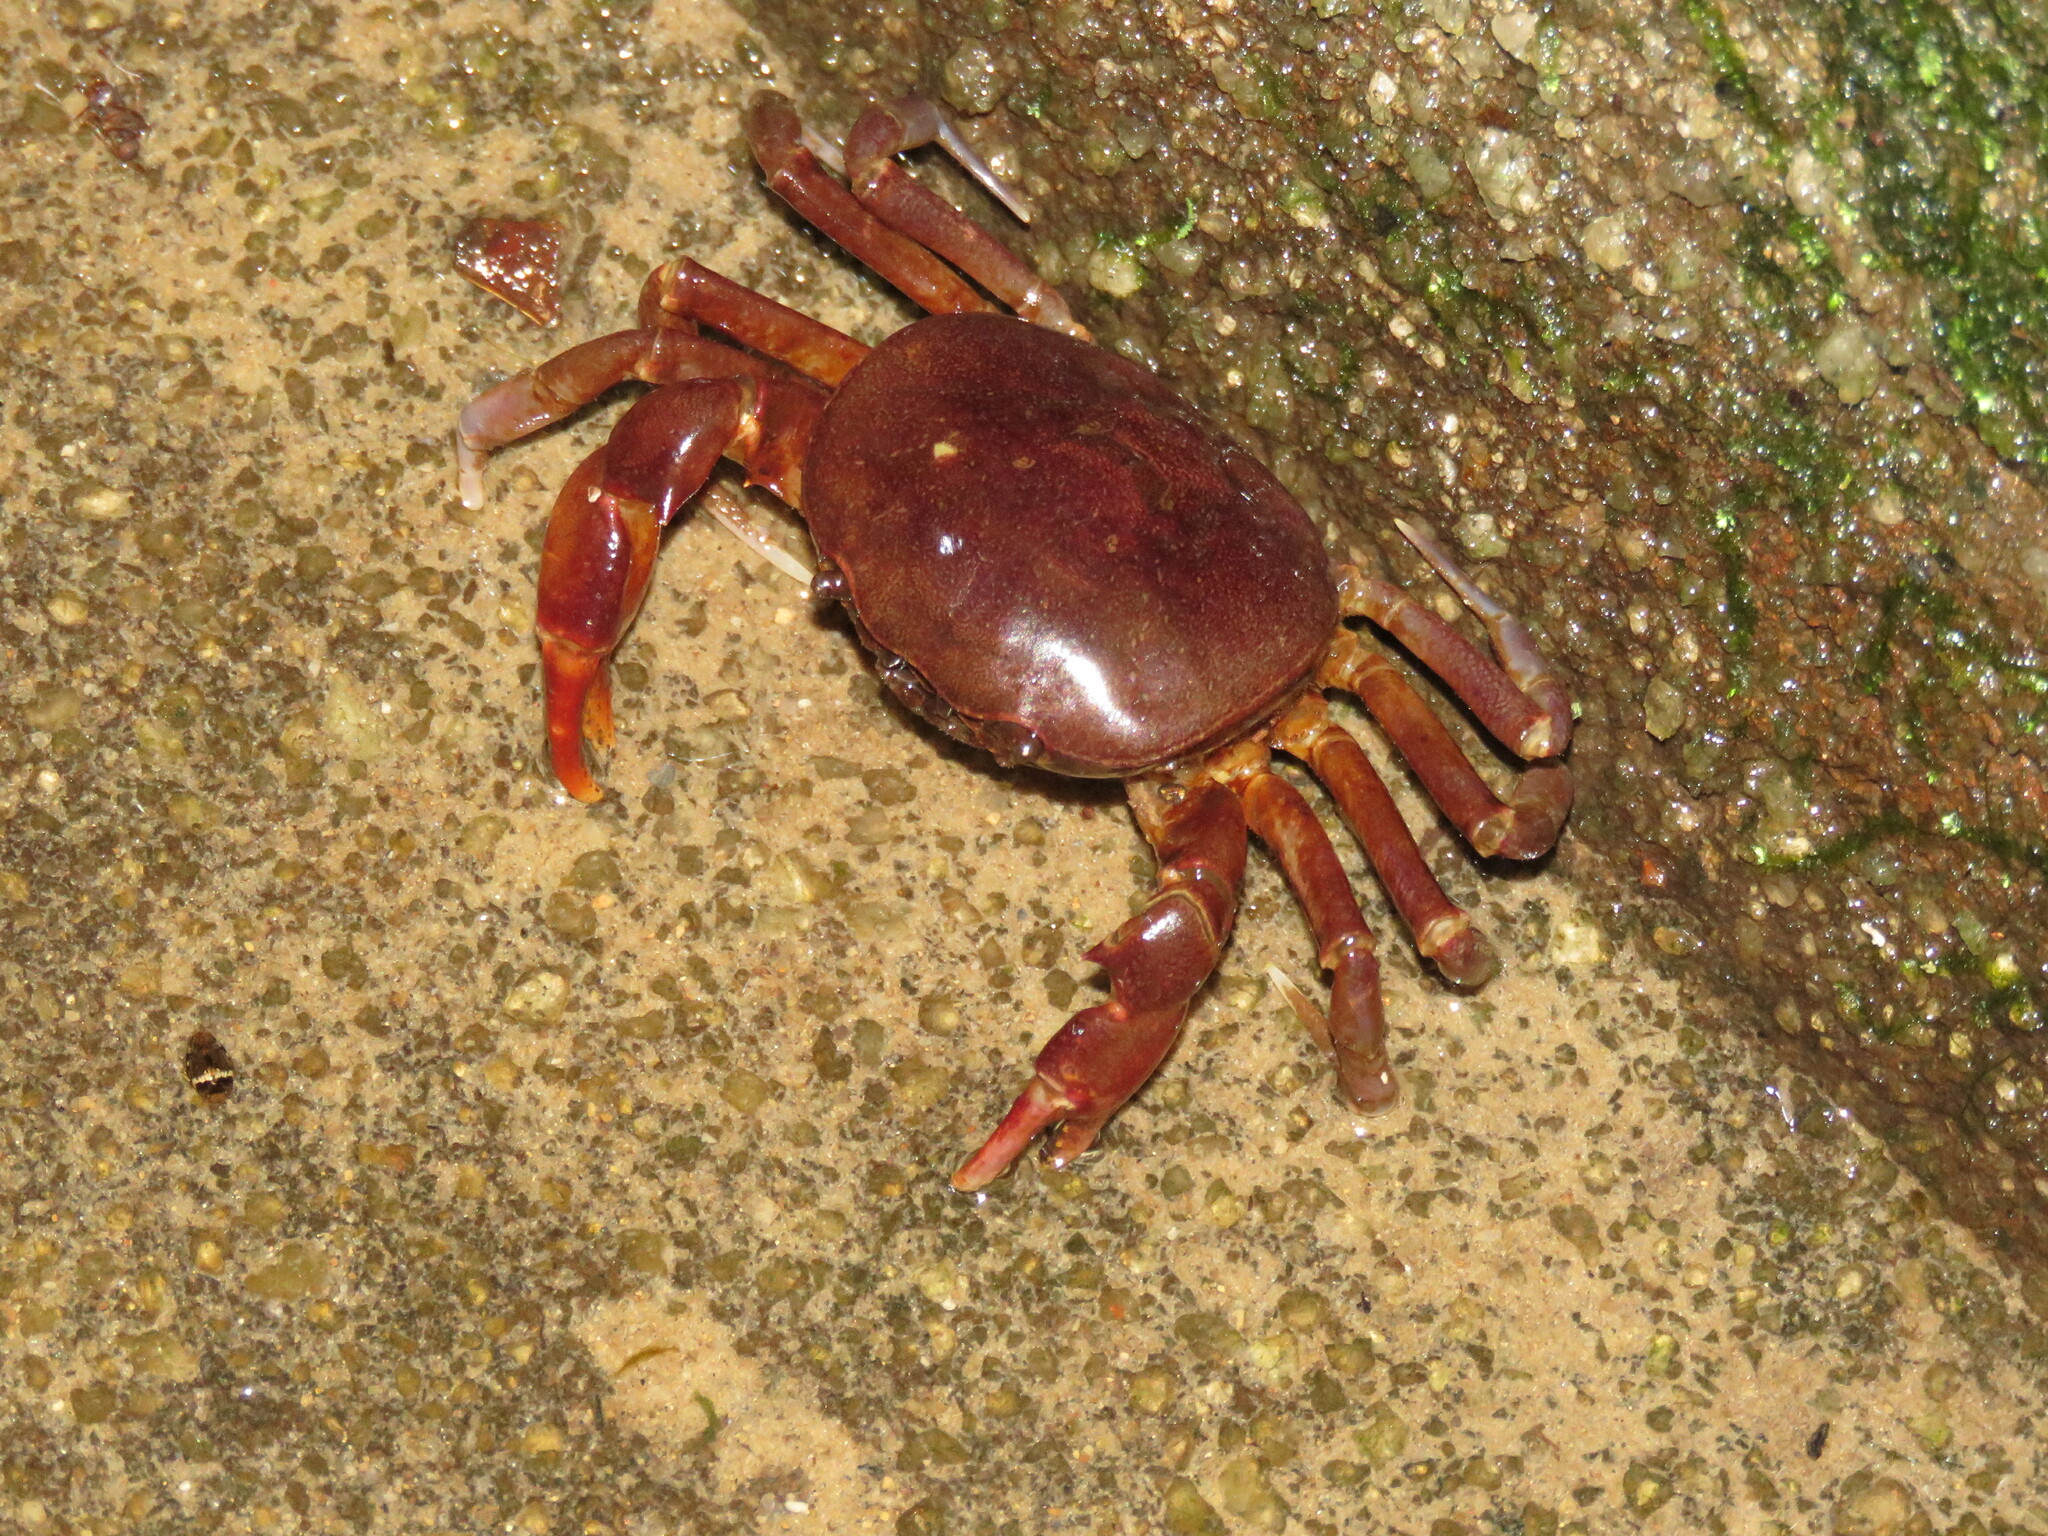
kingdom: Animalia
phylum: Arthropoda
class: Malacostraca
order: Decapoda
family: Trichodactylidae
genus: Trichodactylus
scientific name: Trichodactylus fluviatilis
